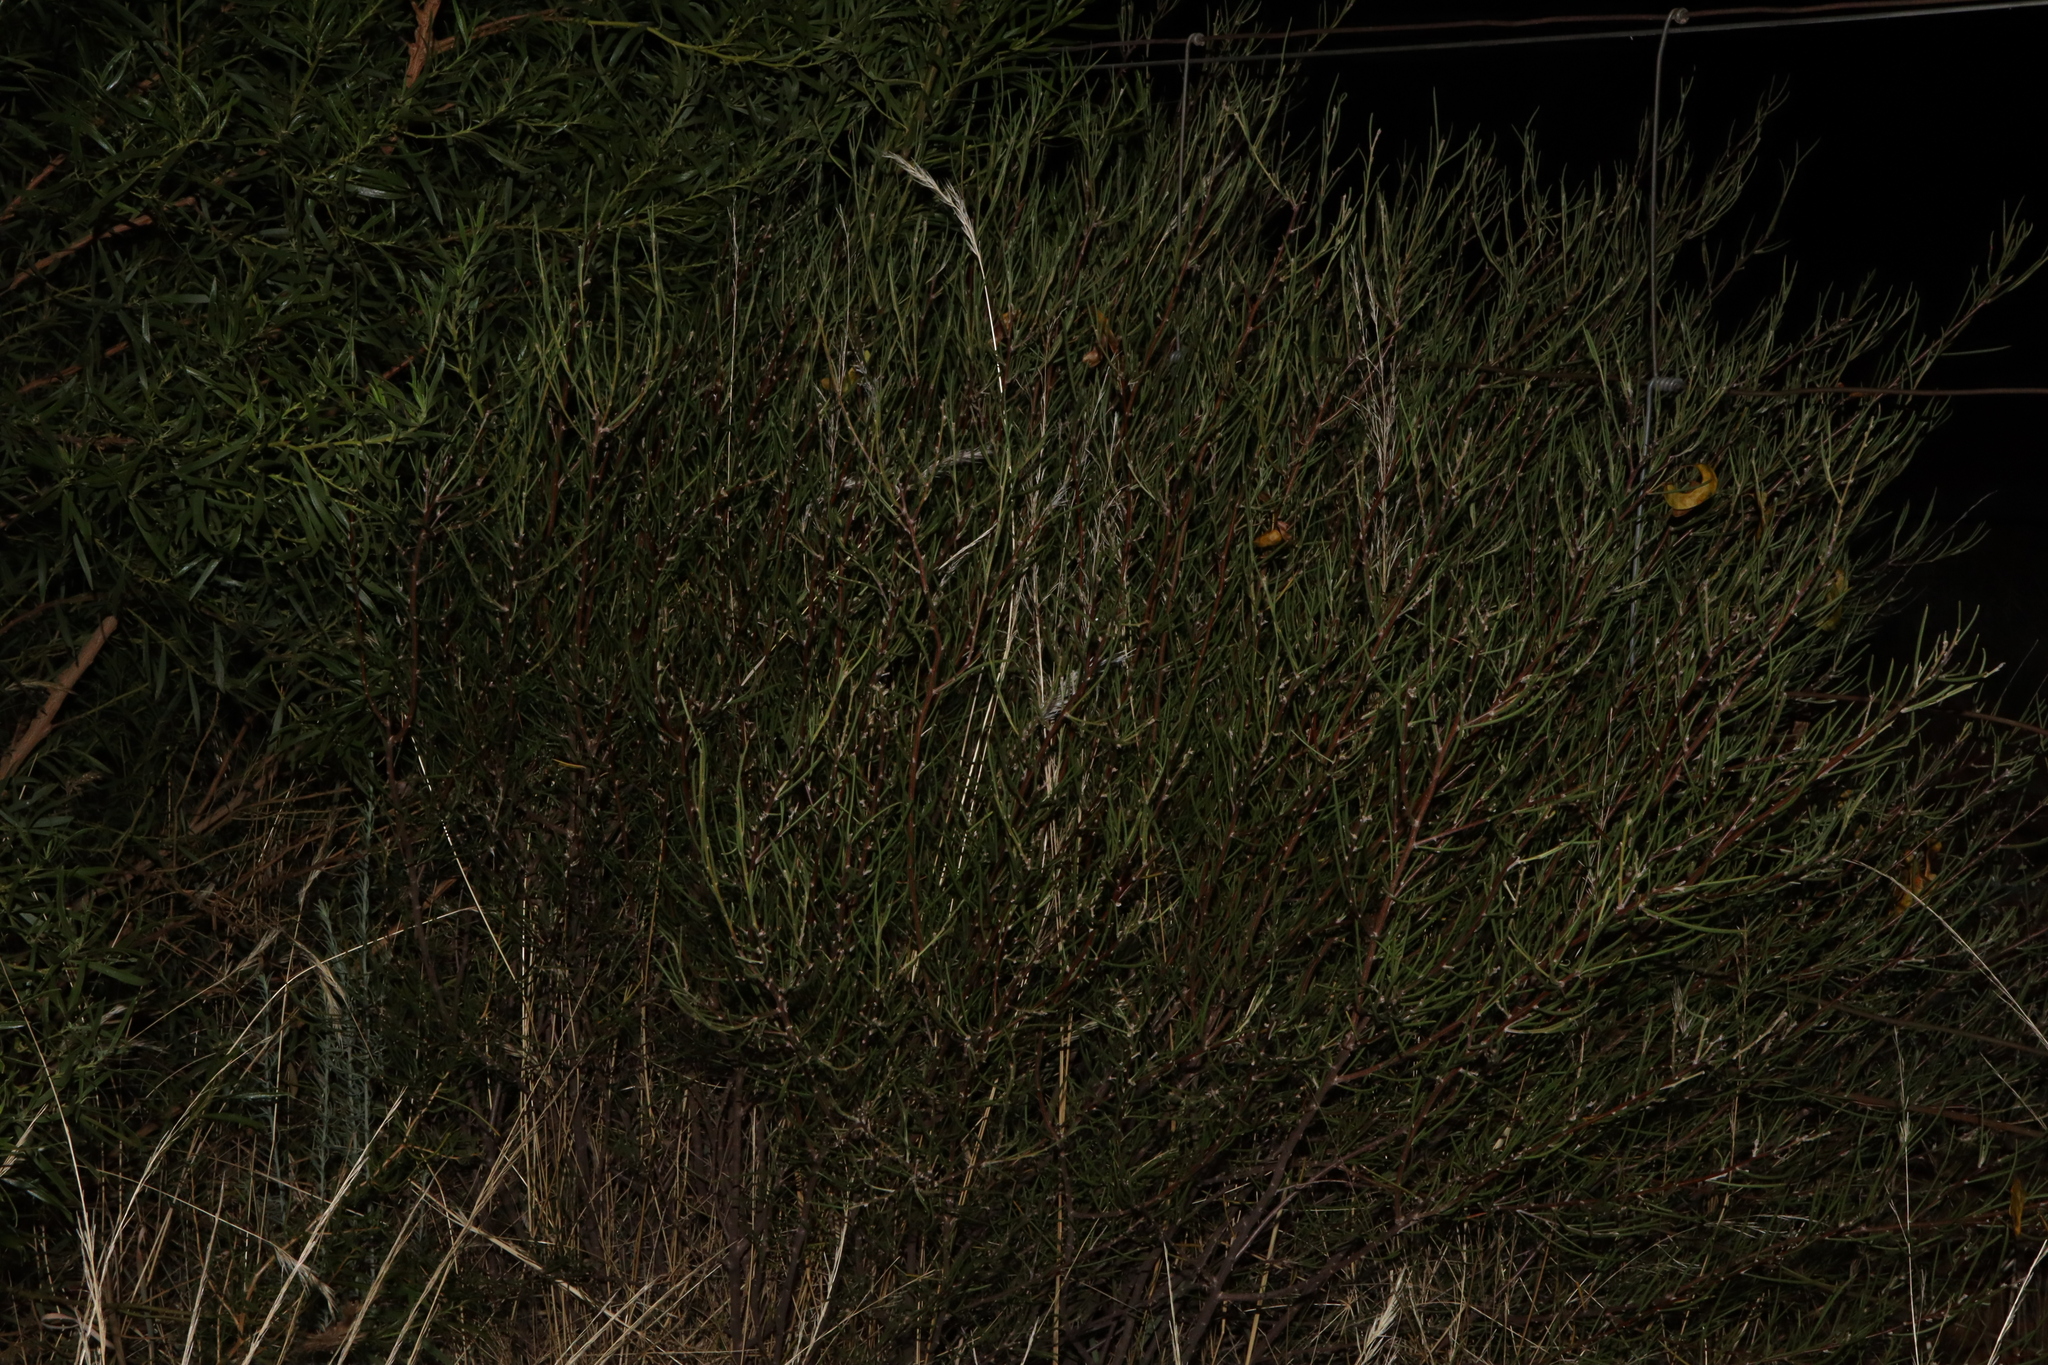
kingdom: Plantae
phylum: Tracheophyta
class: Magnoliopsida
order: Fabales
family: Fabaceae
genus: Senna
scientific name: Senna circinnata
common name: Coiled cassia
